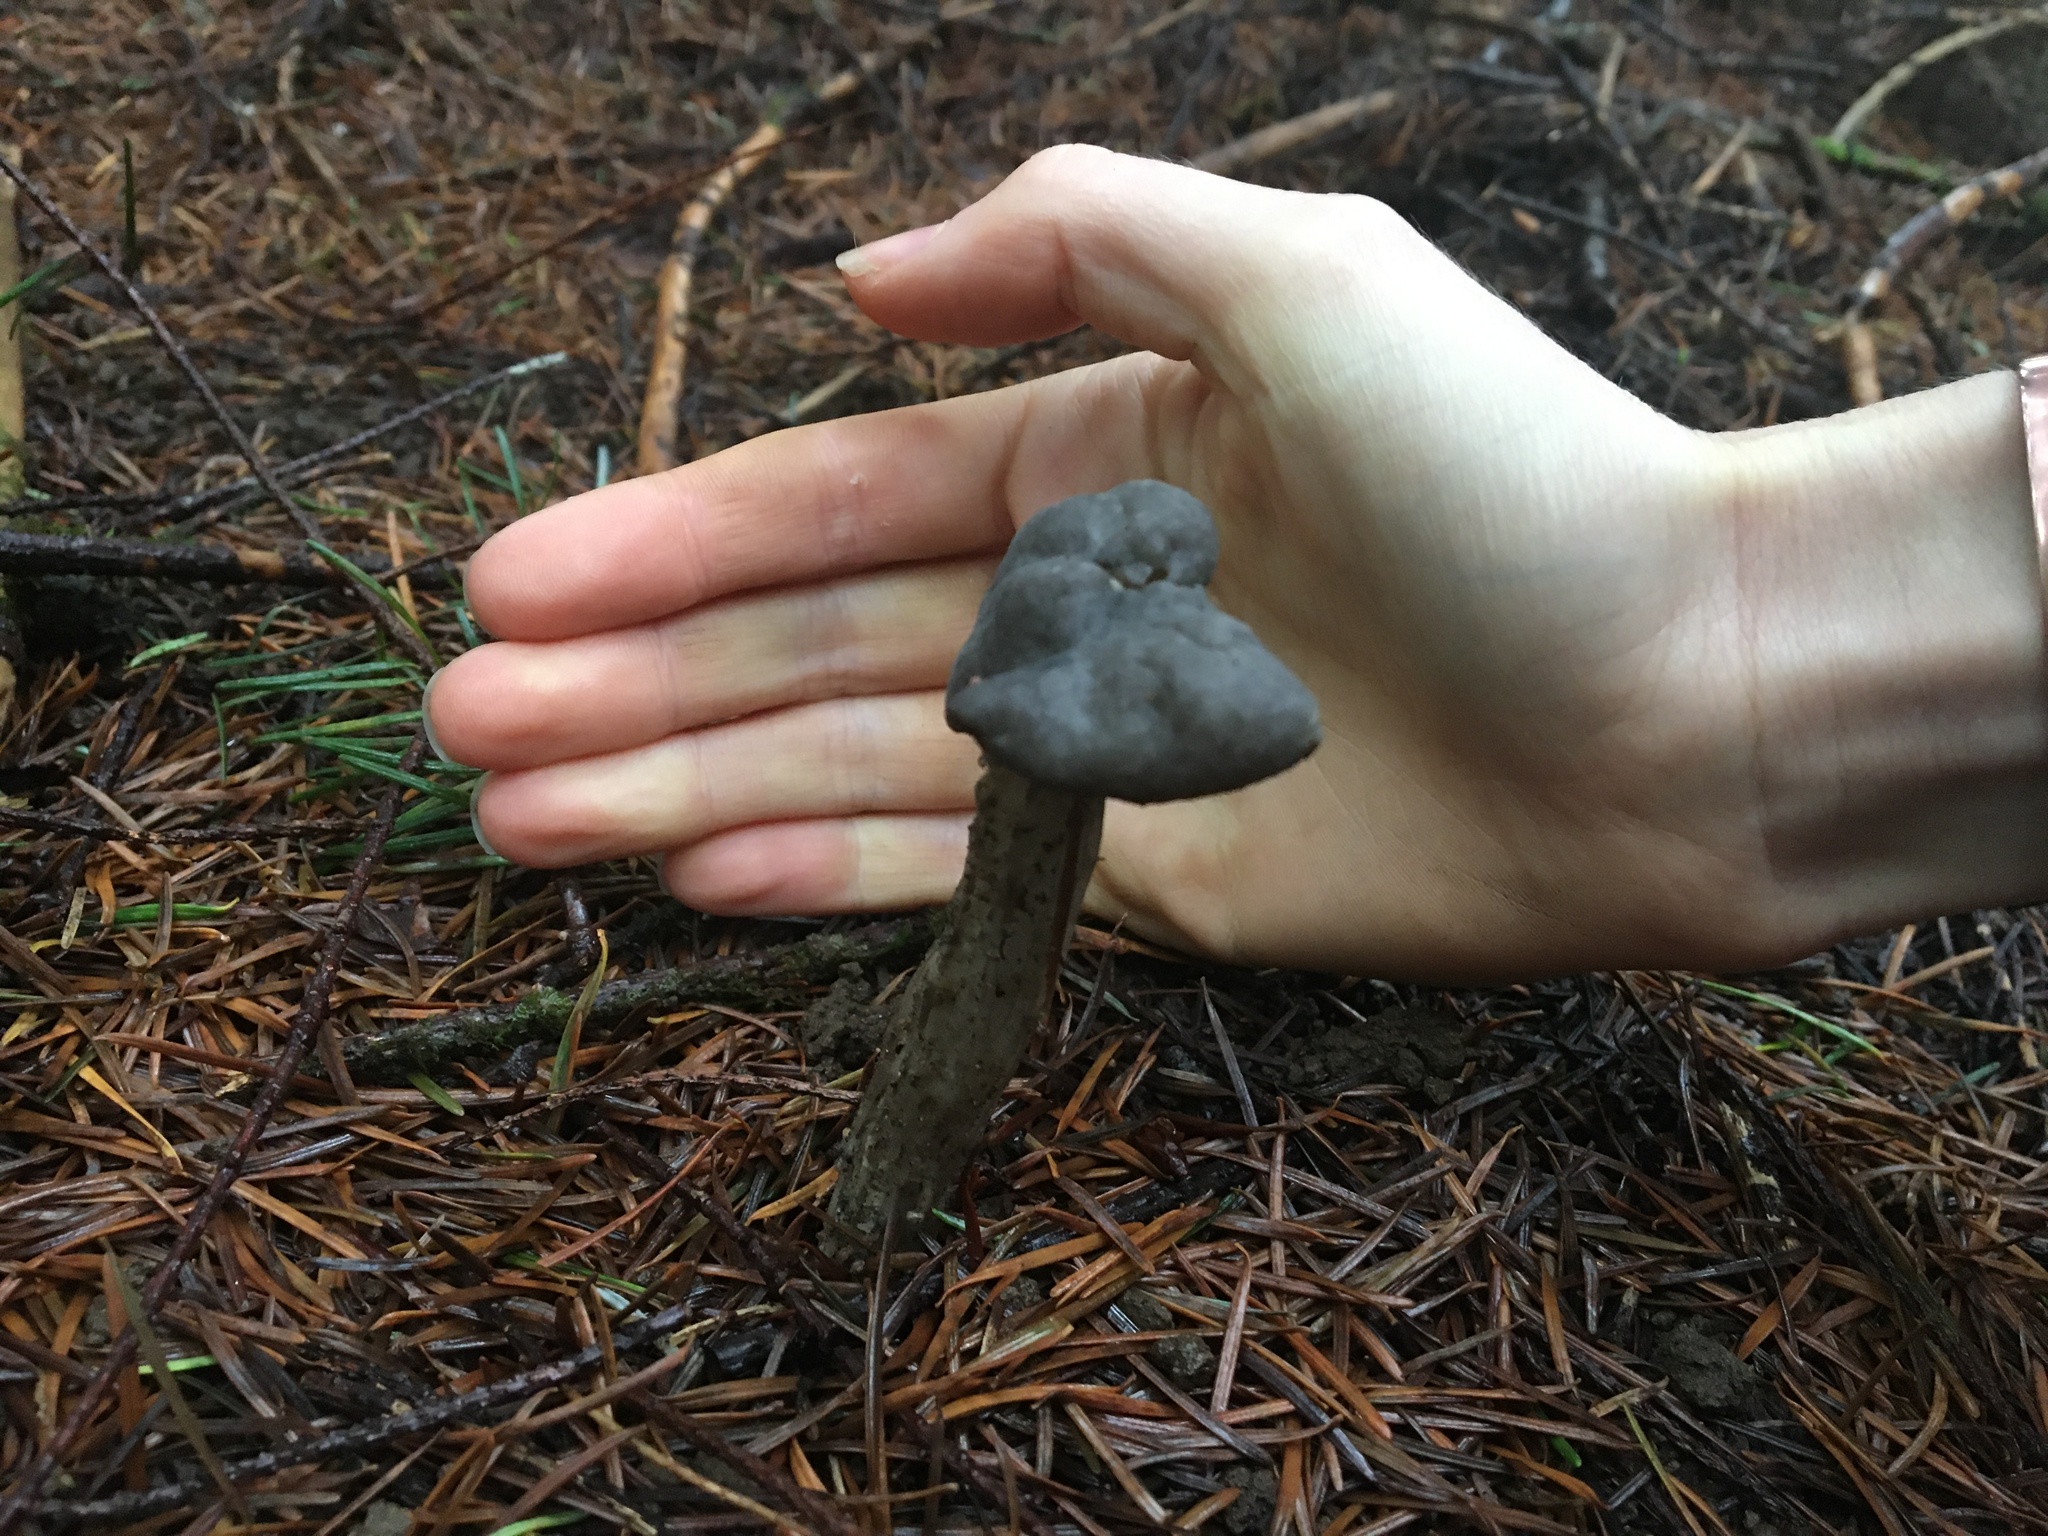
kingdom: Fungi
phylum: Ascomycota
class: Pezizomycetes
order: Pezizales
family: Helvellaceae
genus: Helvella
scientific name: Helvella vespertina
